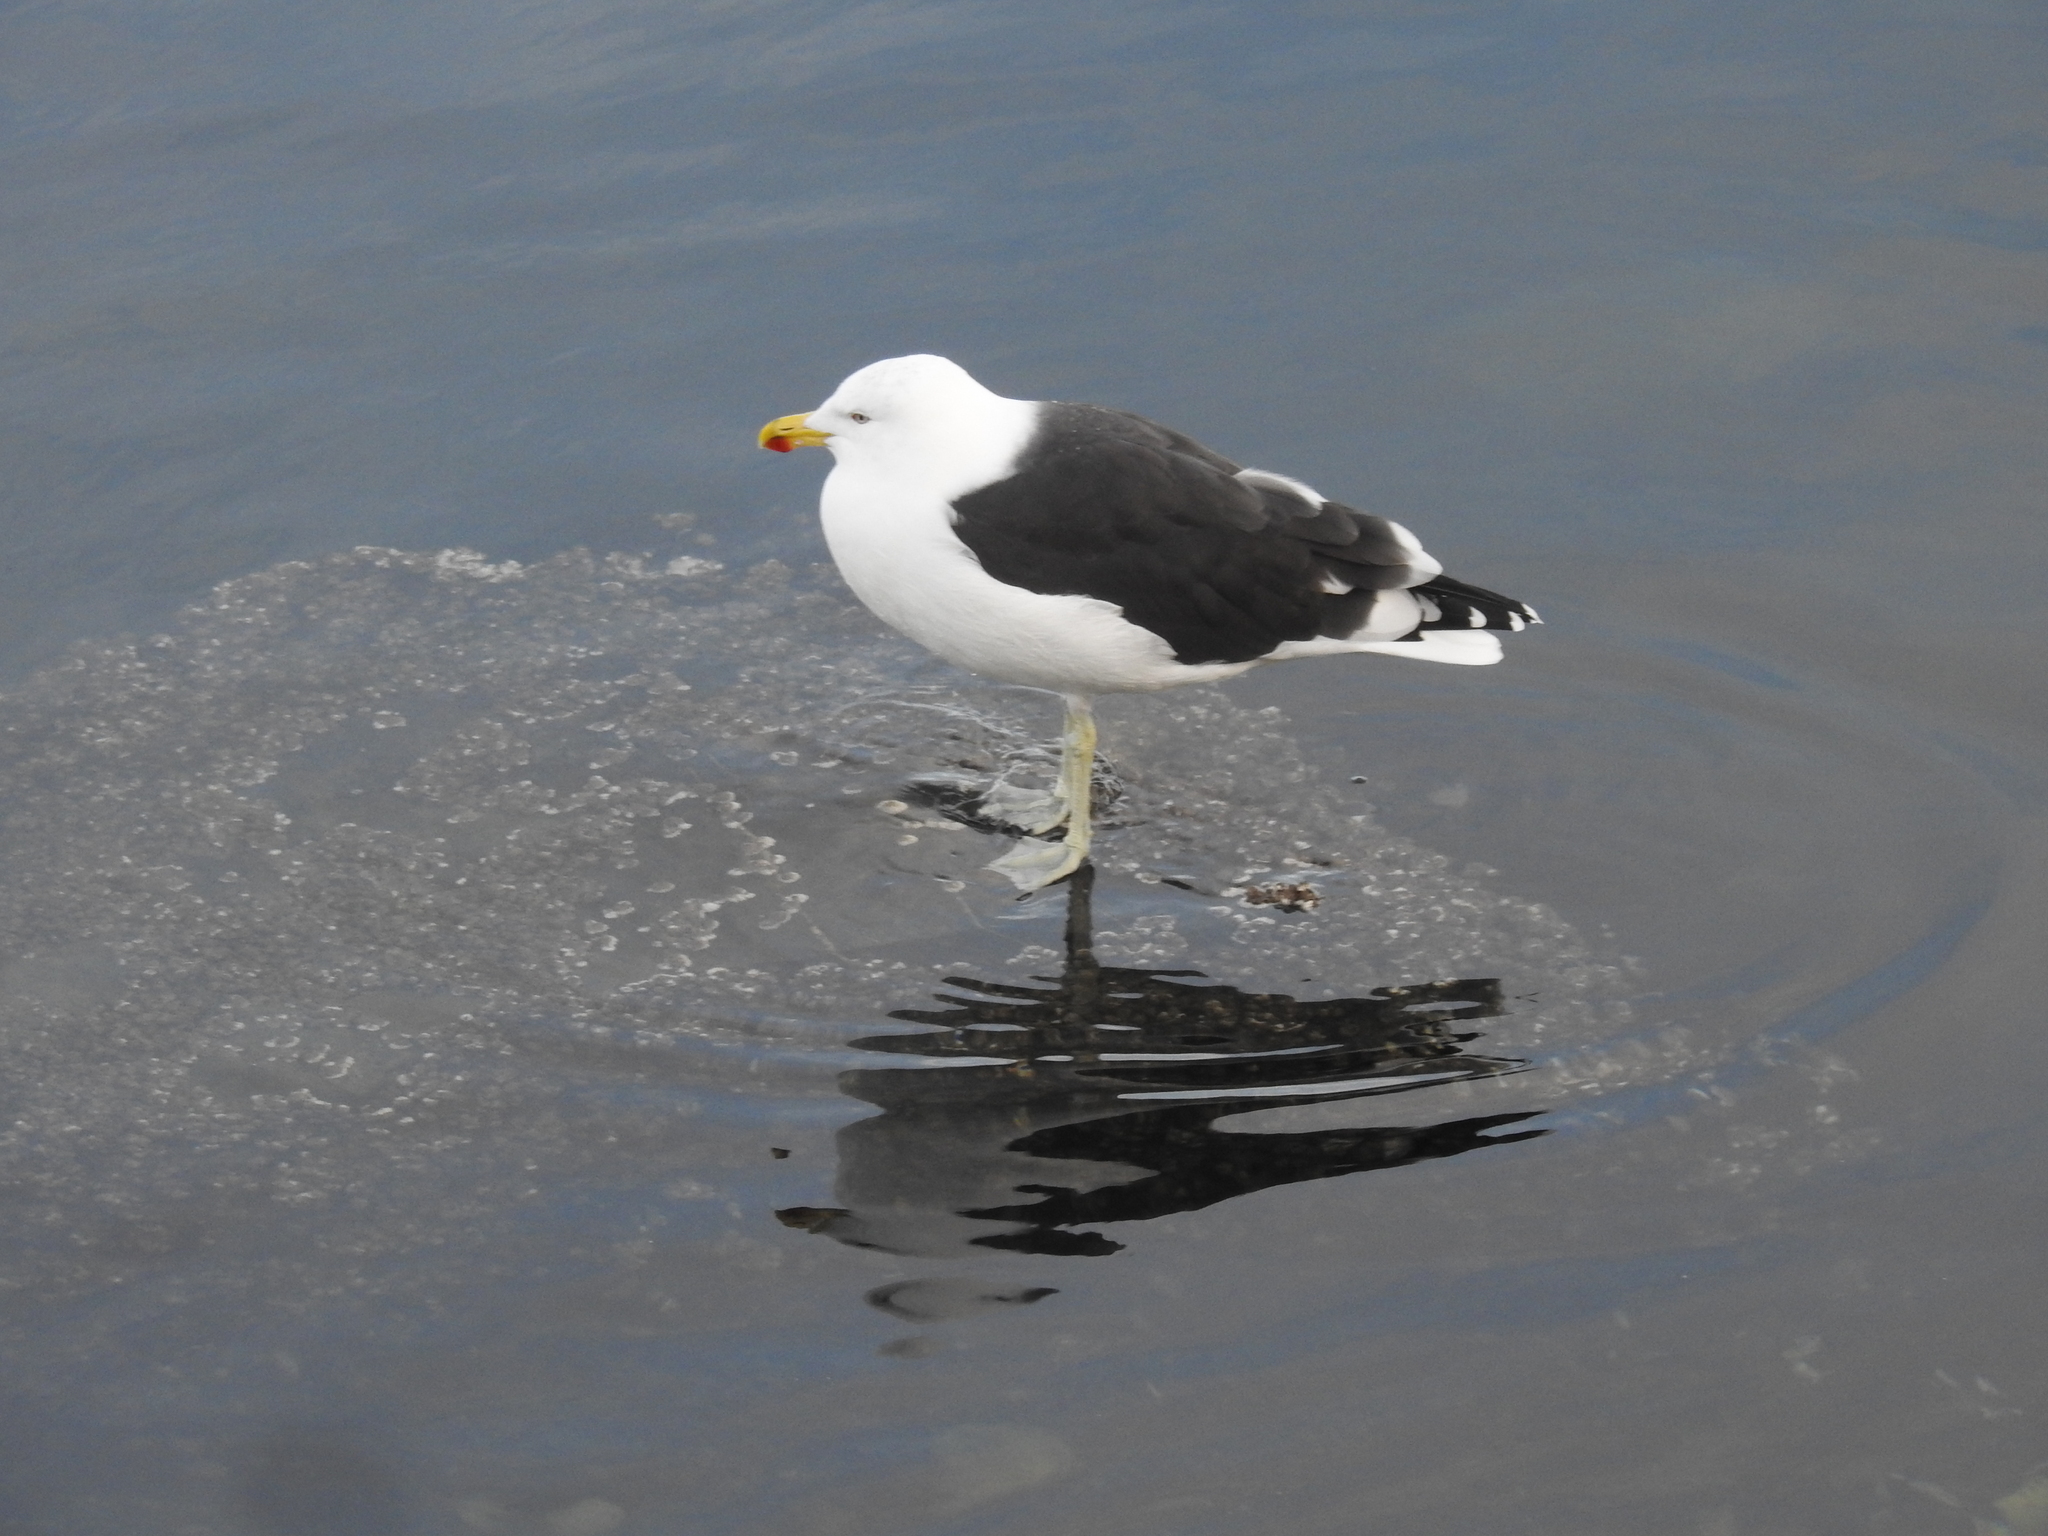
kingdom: Animalia
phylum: Chordata
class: Aves
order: Charadriiformes
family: Laridae
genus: Larus
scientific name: Larus dominicanus
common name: Kelp gull
